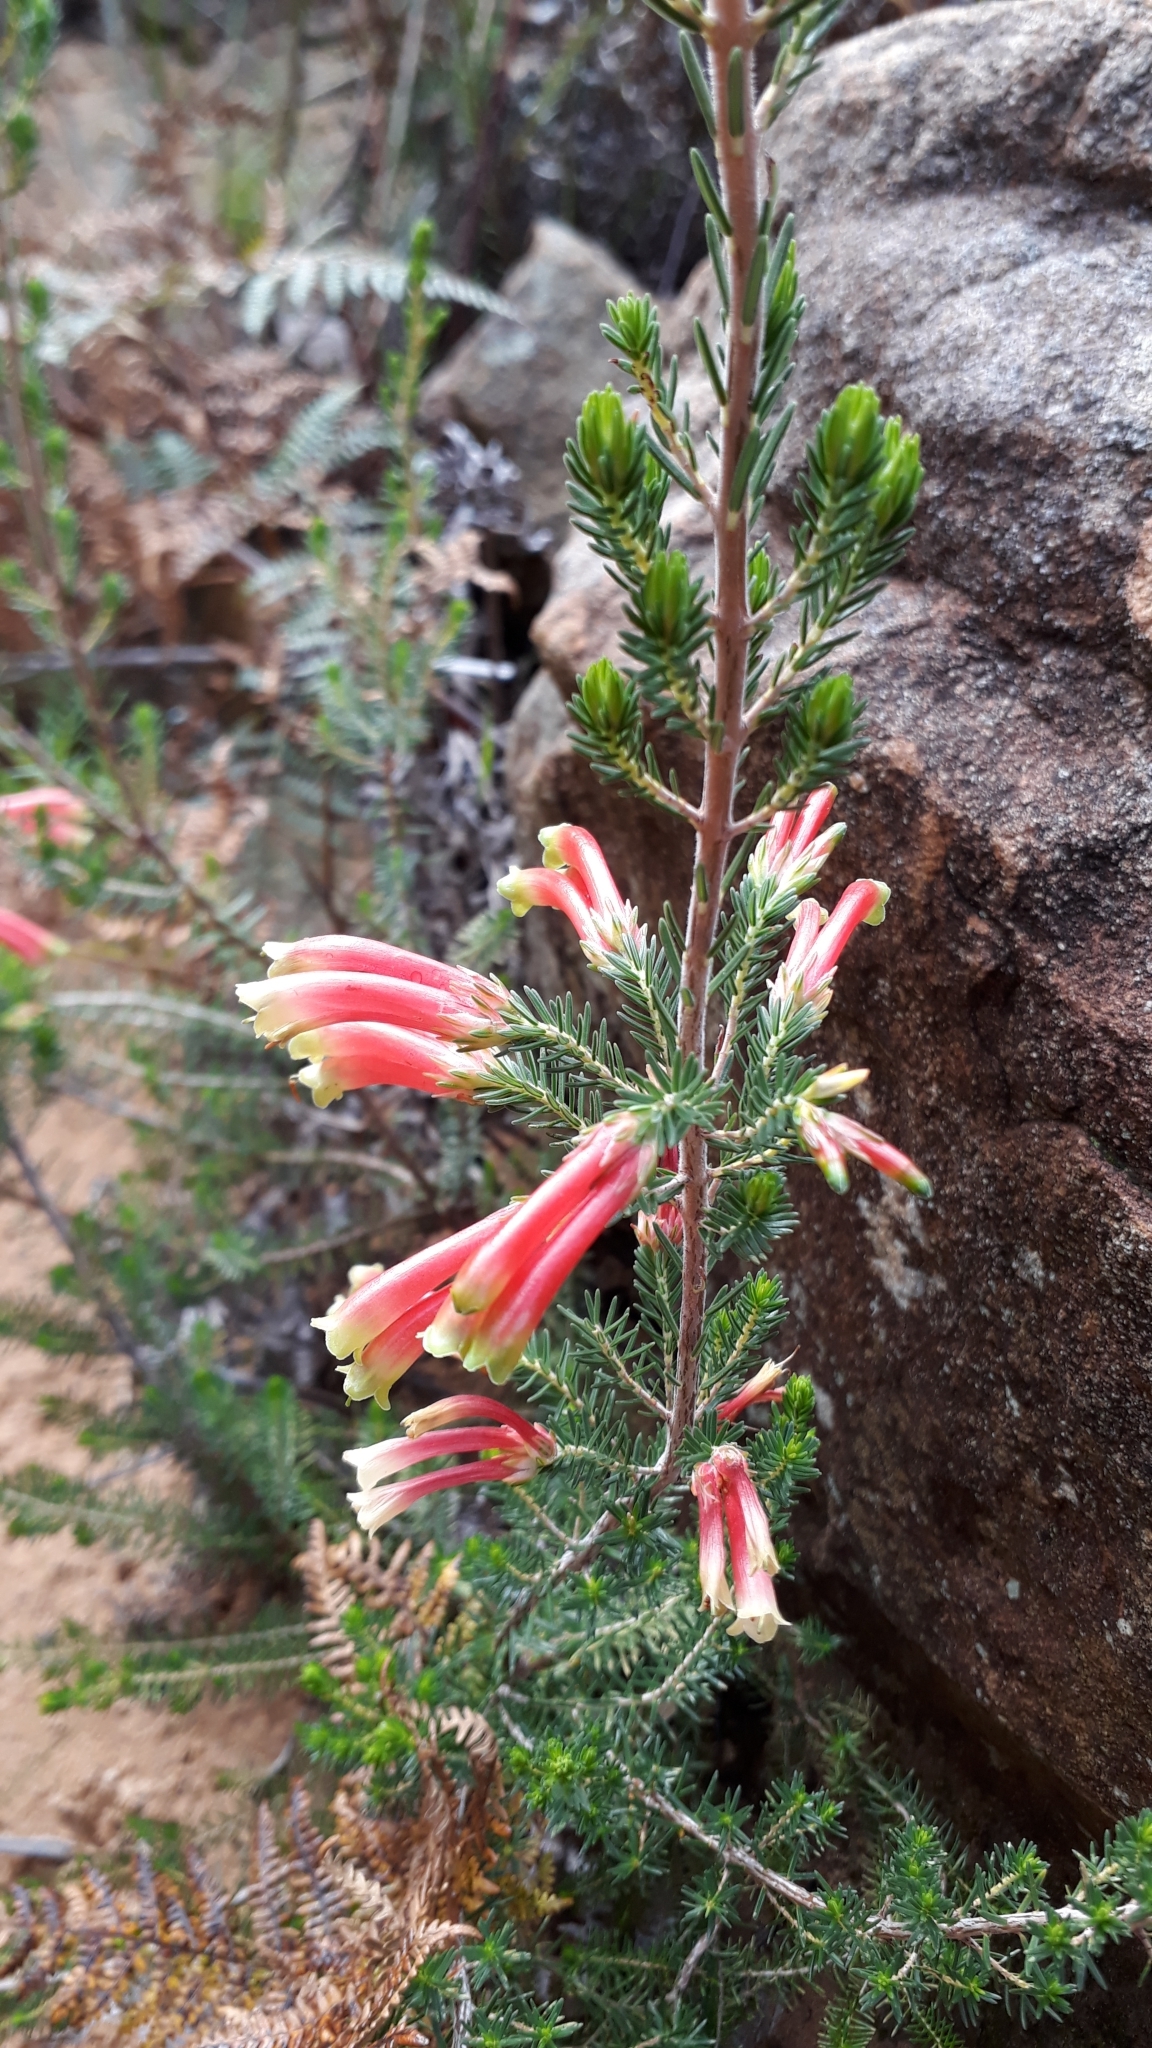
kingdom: Plantae
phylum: Tracheophyta
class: Magnoliopsida
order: Ericales
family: Ericaceae
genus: Erica
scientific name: Erica versicolor
